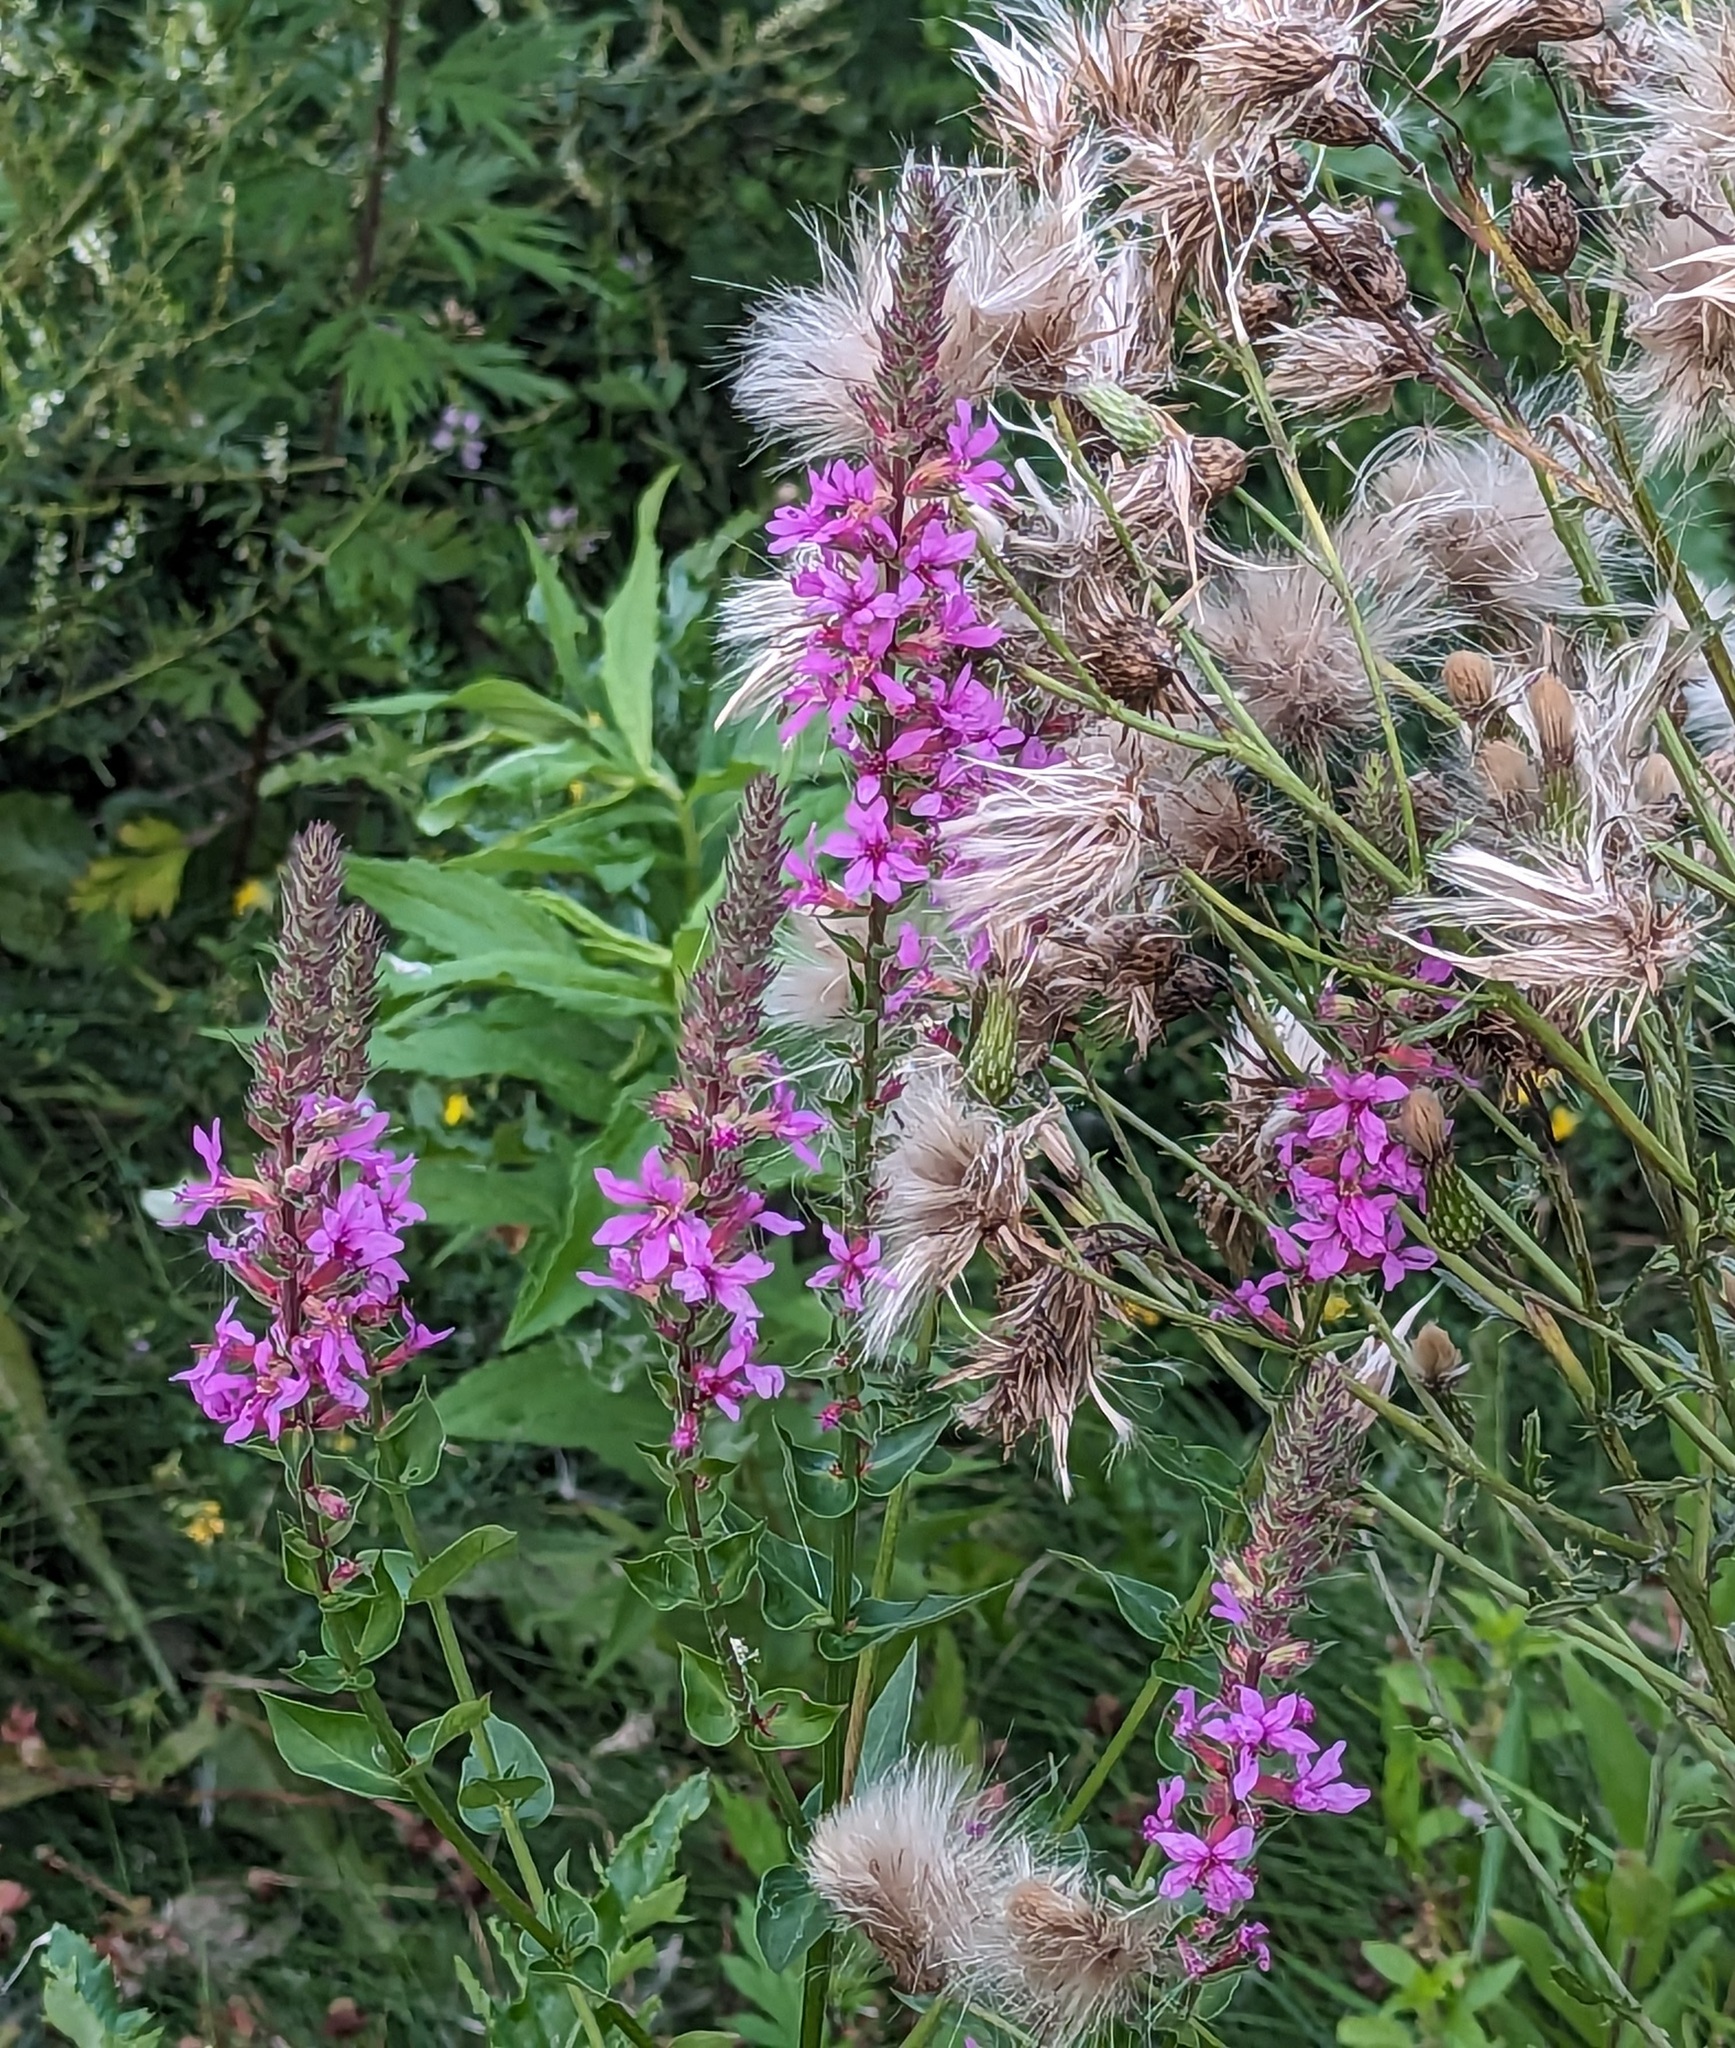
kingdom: Plantae
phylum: Tracheophyta
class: Magnoliopsida
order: Myrtales
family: Lythraceae
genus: Lythrum
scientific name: Lythrum salicaria
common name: Purple loosestrife
